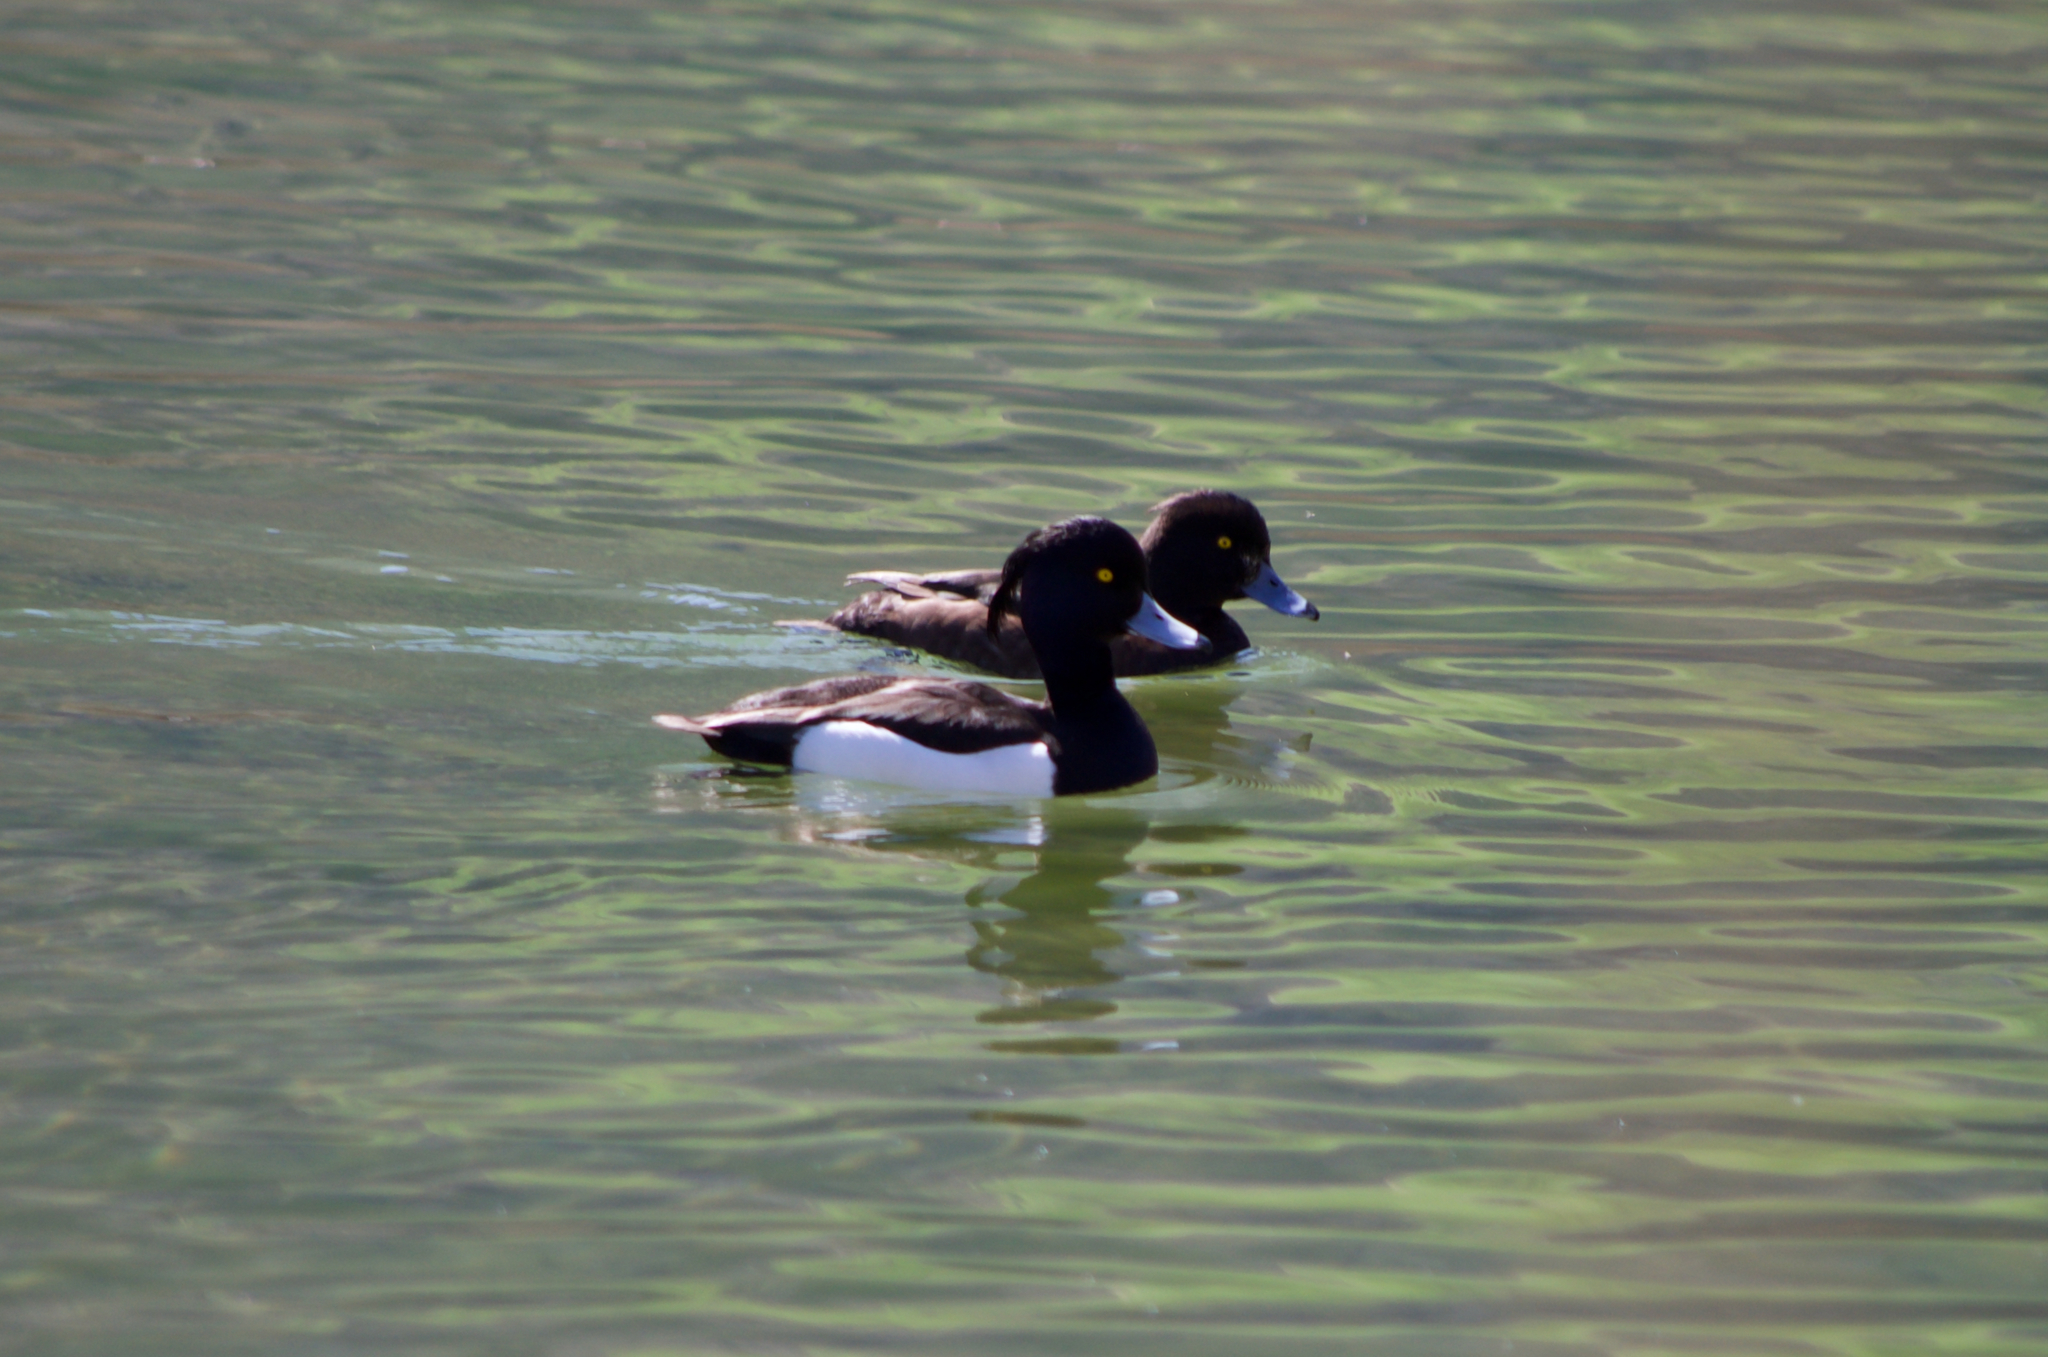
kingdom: Animalia
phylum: Chordata
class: Aves
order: Anseriformes
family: Anatidae
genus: Aythya
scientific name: Aythya fuligula
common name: Tufted duck
